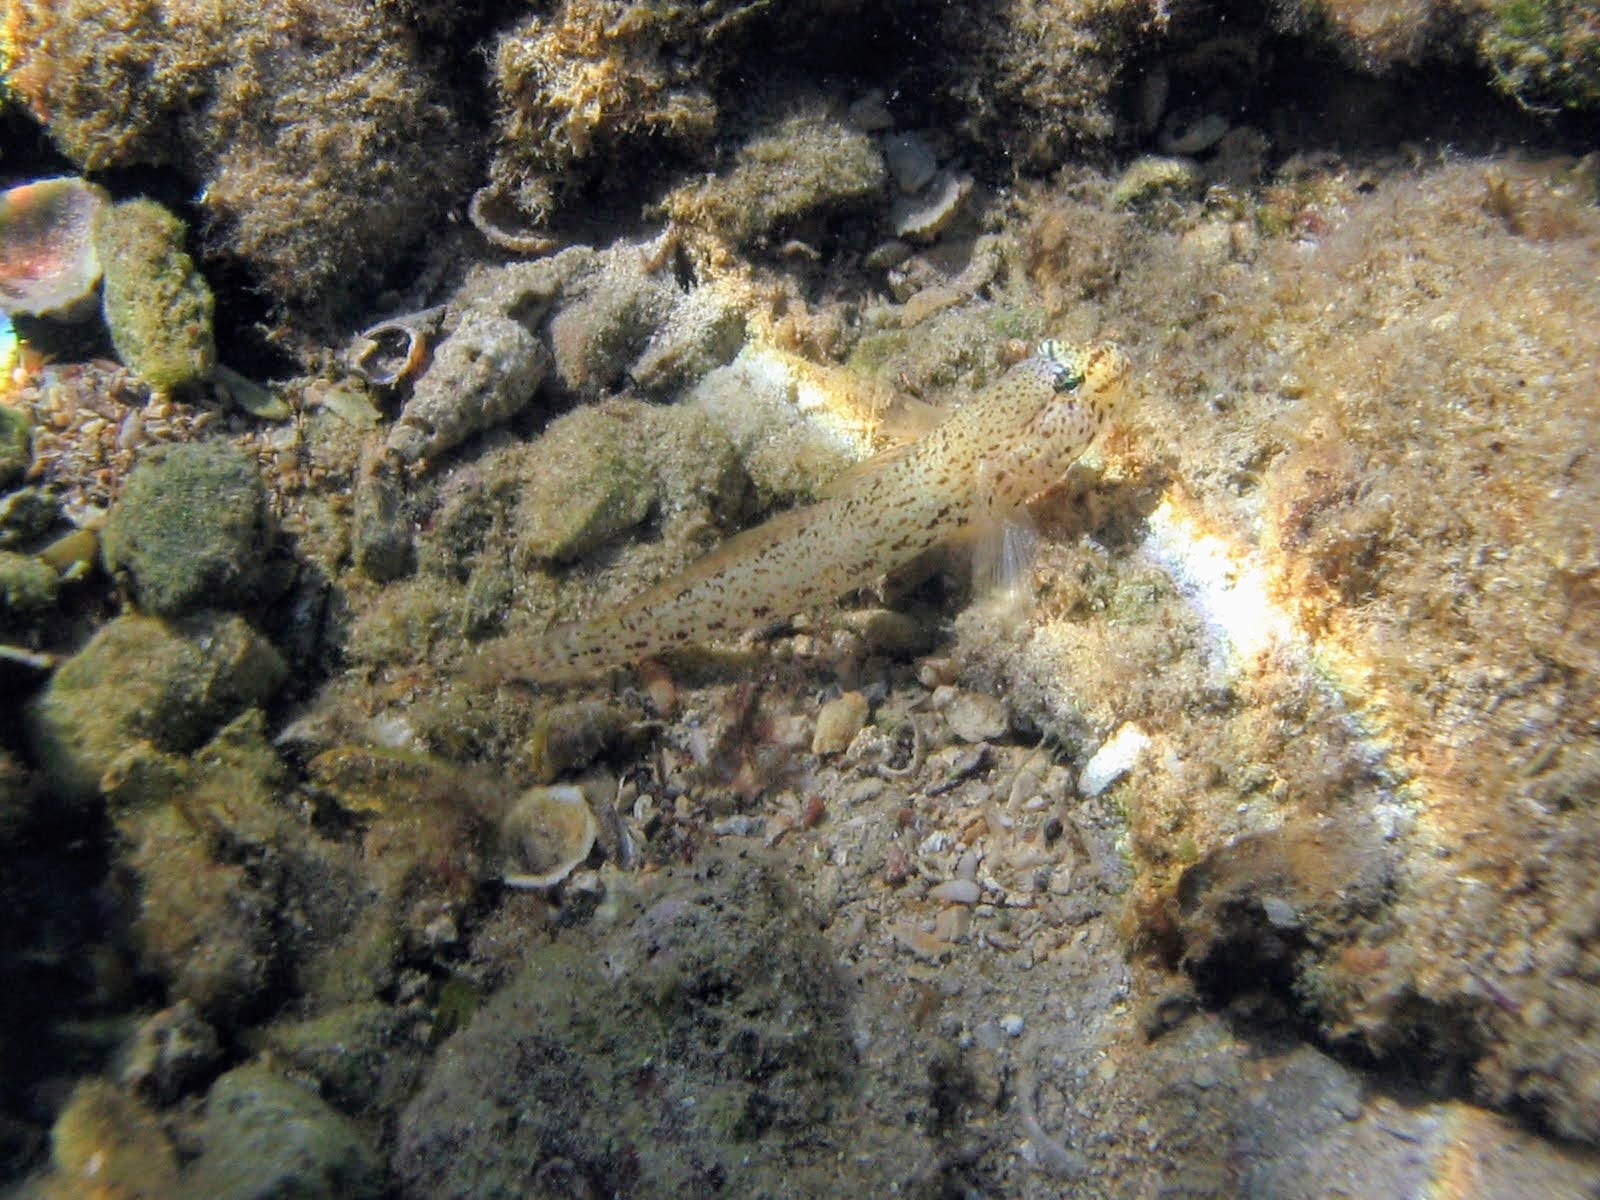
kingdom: Animalia
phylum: Chordata
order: Perciformes
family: Gobiidae
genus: Gobius
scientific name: Gobius incognitus
